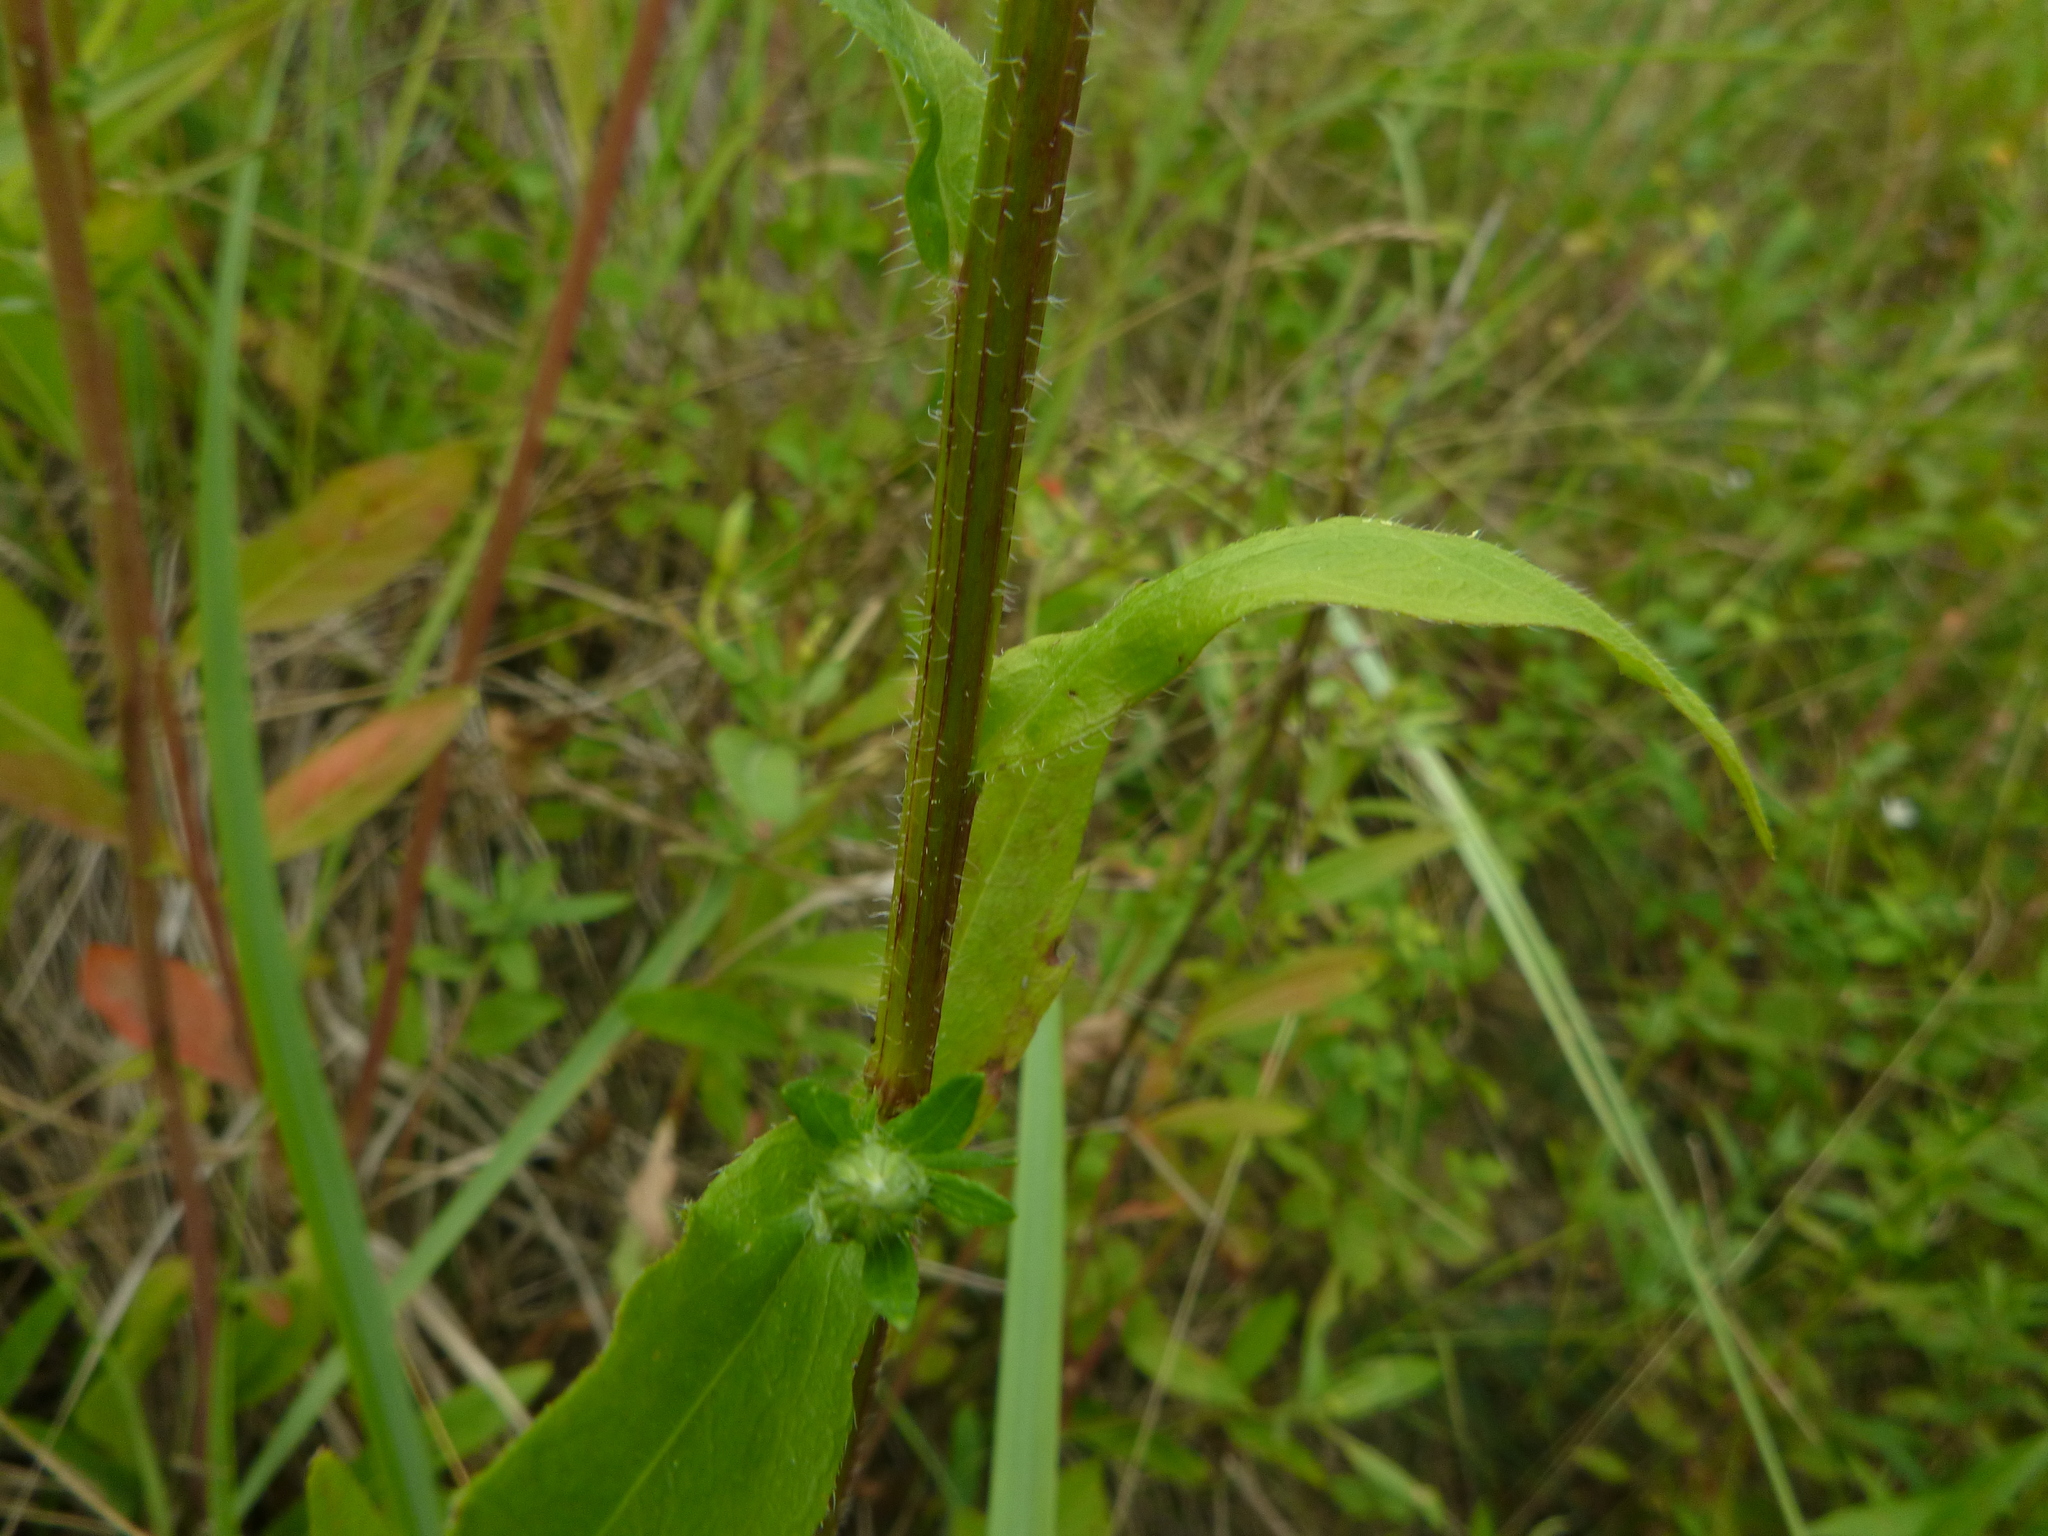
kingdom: Plantae
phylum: Tracheophyta
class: Magnoliopsida
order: Asterales
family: Asteraceae
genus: Erigeron
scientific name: Erigeron annuus
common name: Tall fleabane
